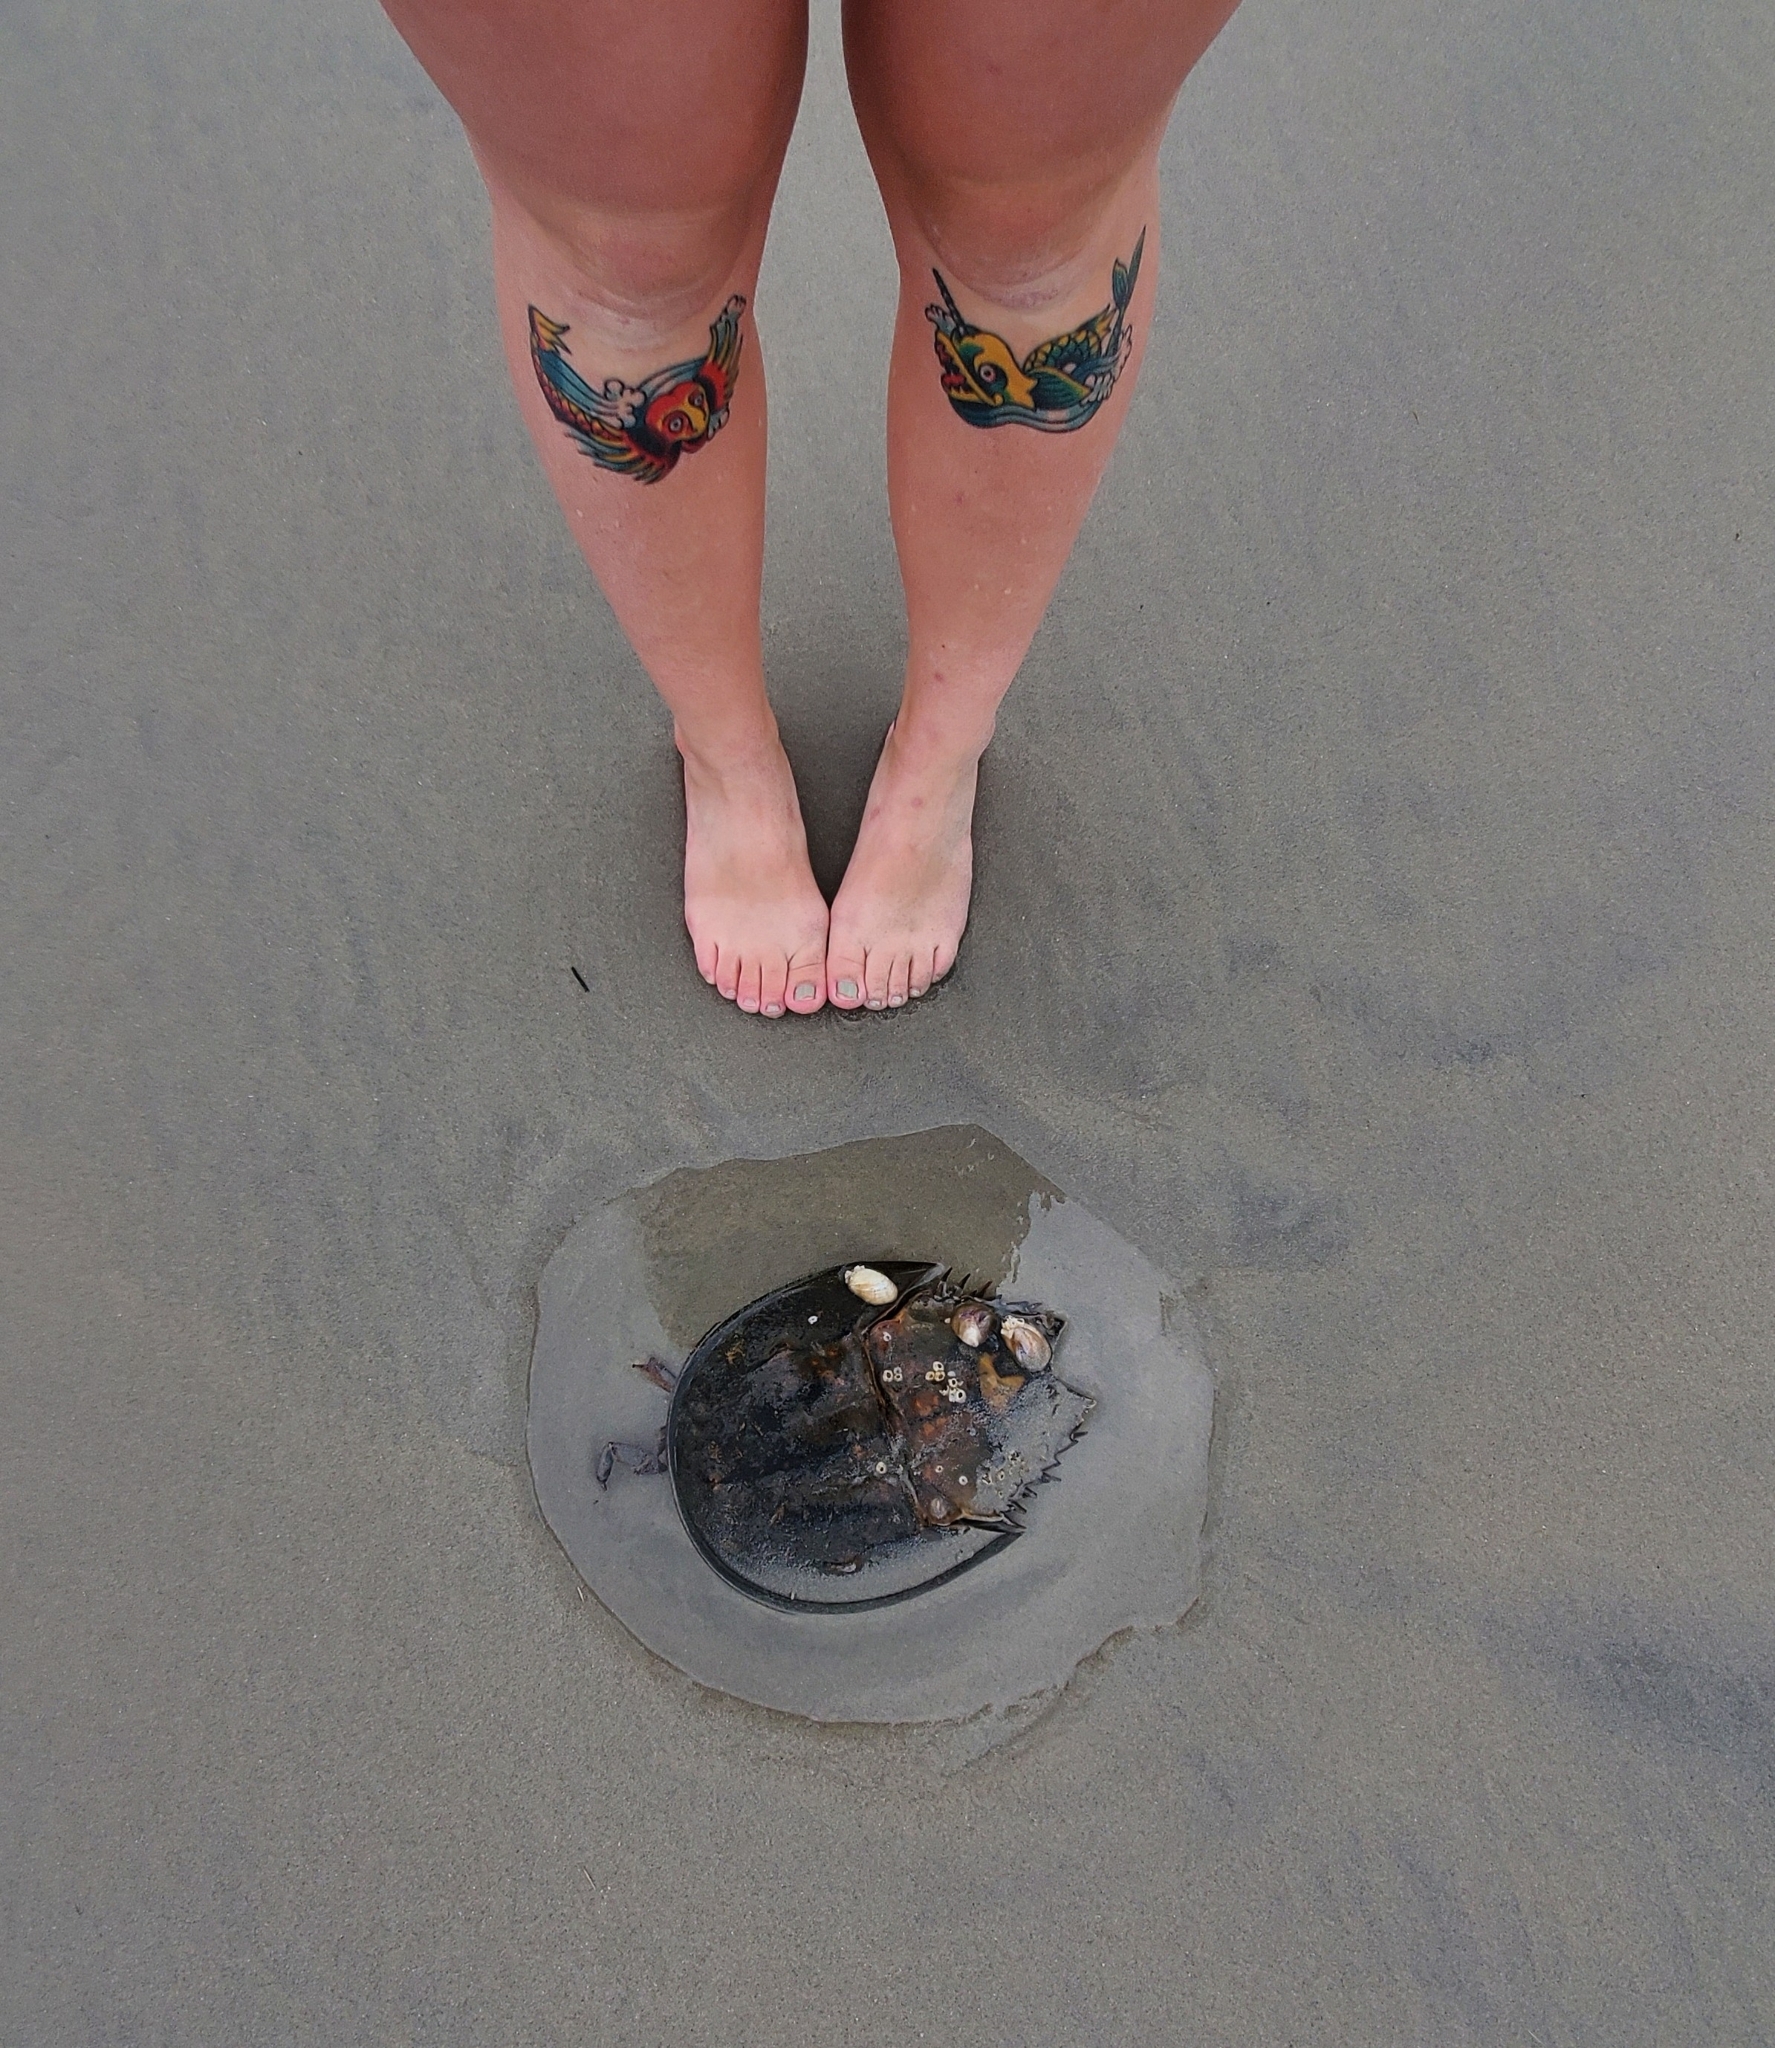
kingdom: Animalia
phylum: Arthropoda
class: Merostomata
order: Xiphosurida
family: Limulidae
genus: Limulus
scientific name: Limulus polyphemus
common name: Horseshoe crab
